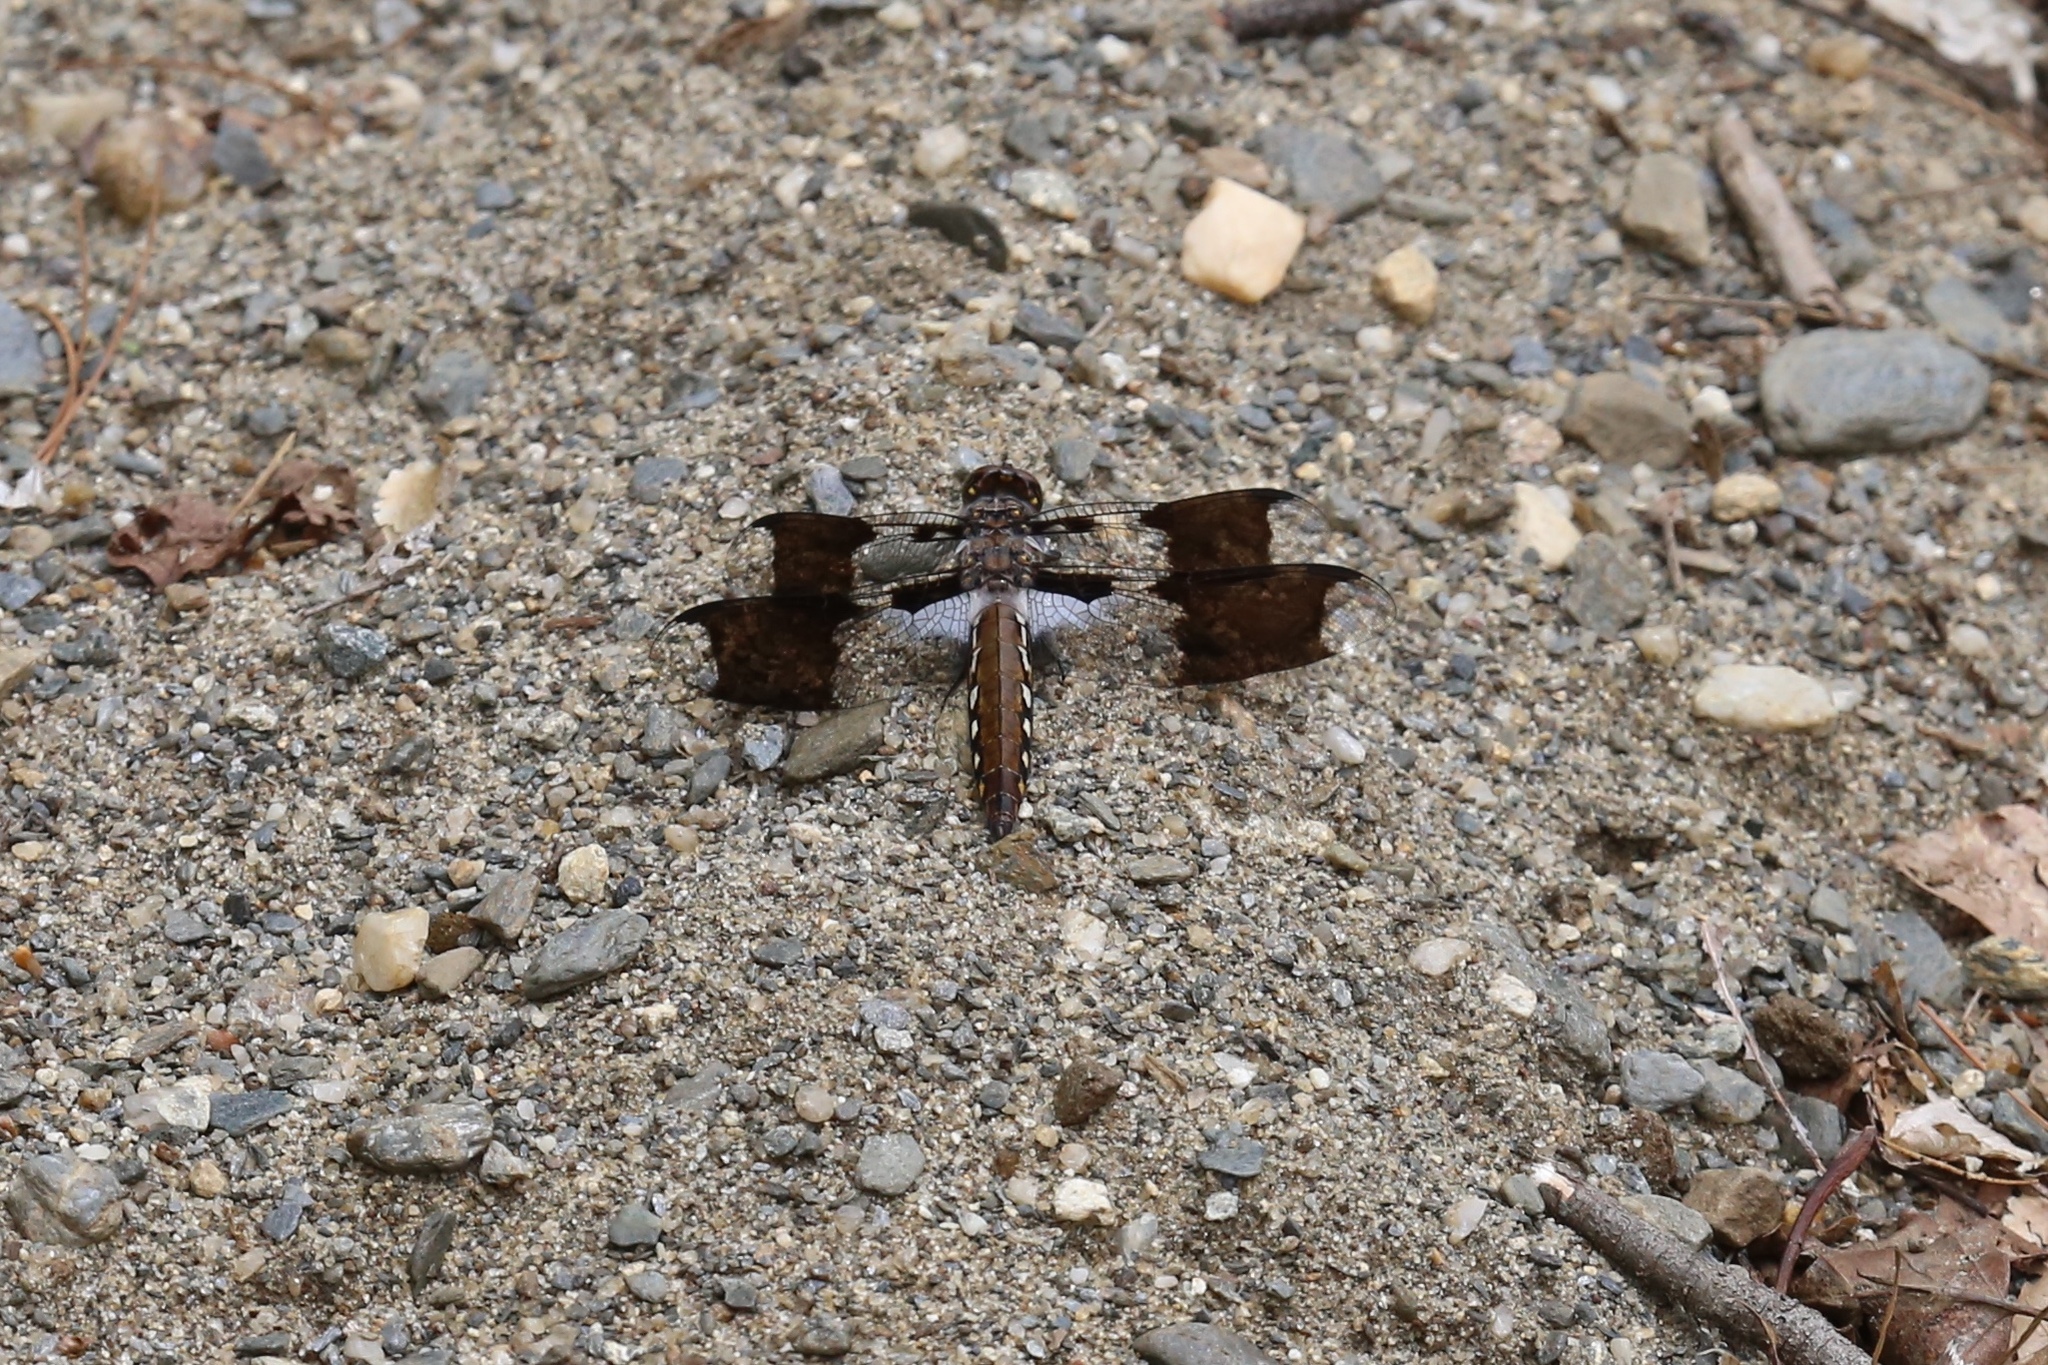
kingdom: Animalia
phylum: Arthropoda
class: Insecta
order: Odonata
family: Libellulidae
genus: Plathemis
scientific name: Plathemis lydia
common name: Common whitetail
